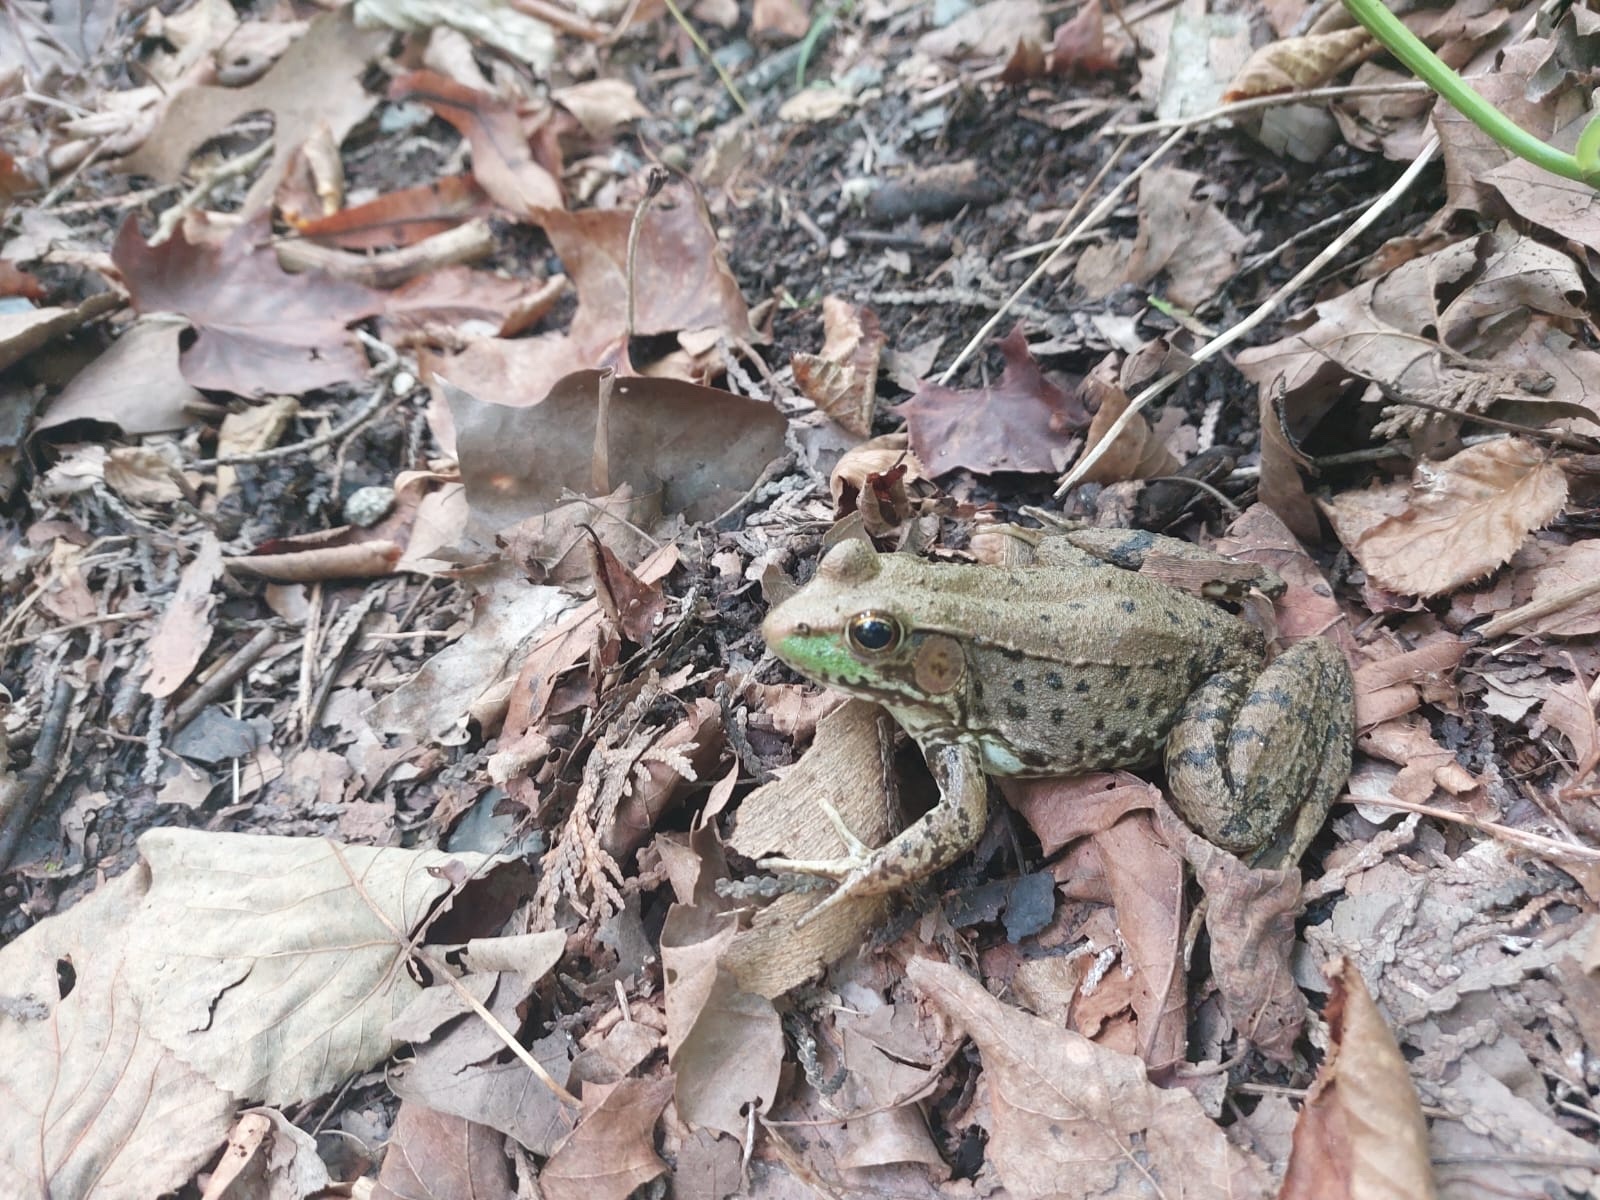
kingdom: Animalia
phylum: Chordata
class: Amphibia
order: Anura
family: Ranidae
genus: Lithobates
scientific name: Lithobates clamitans
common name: Green frog
